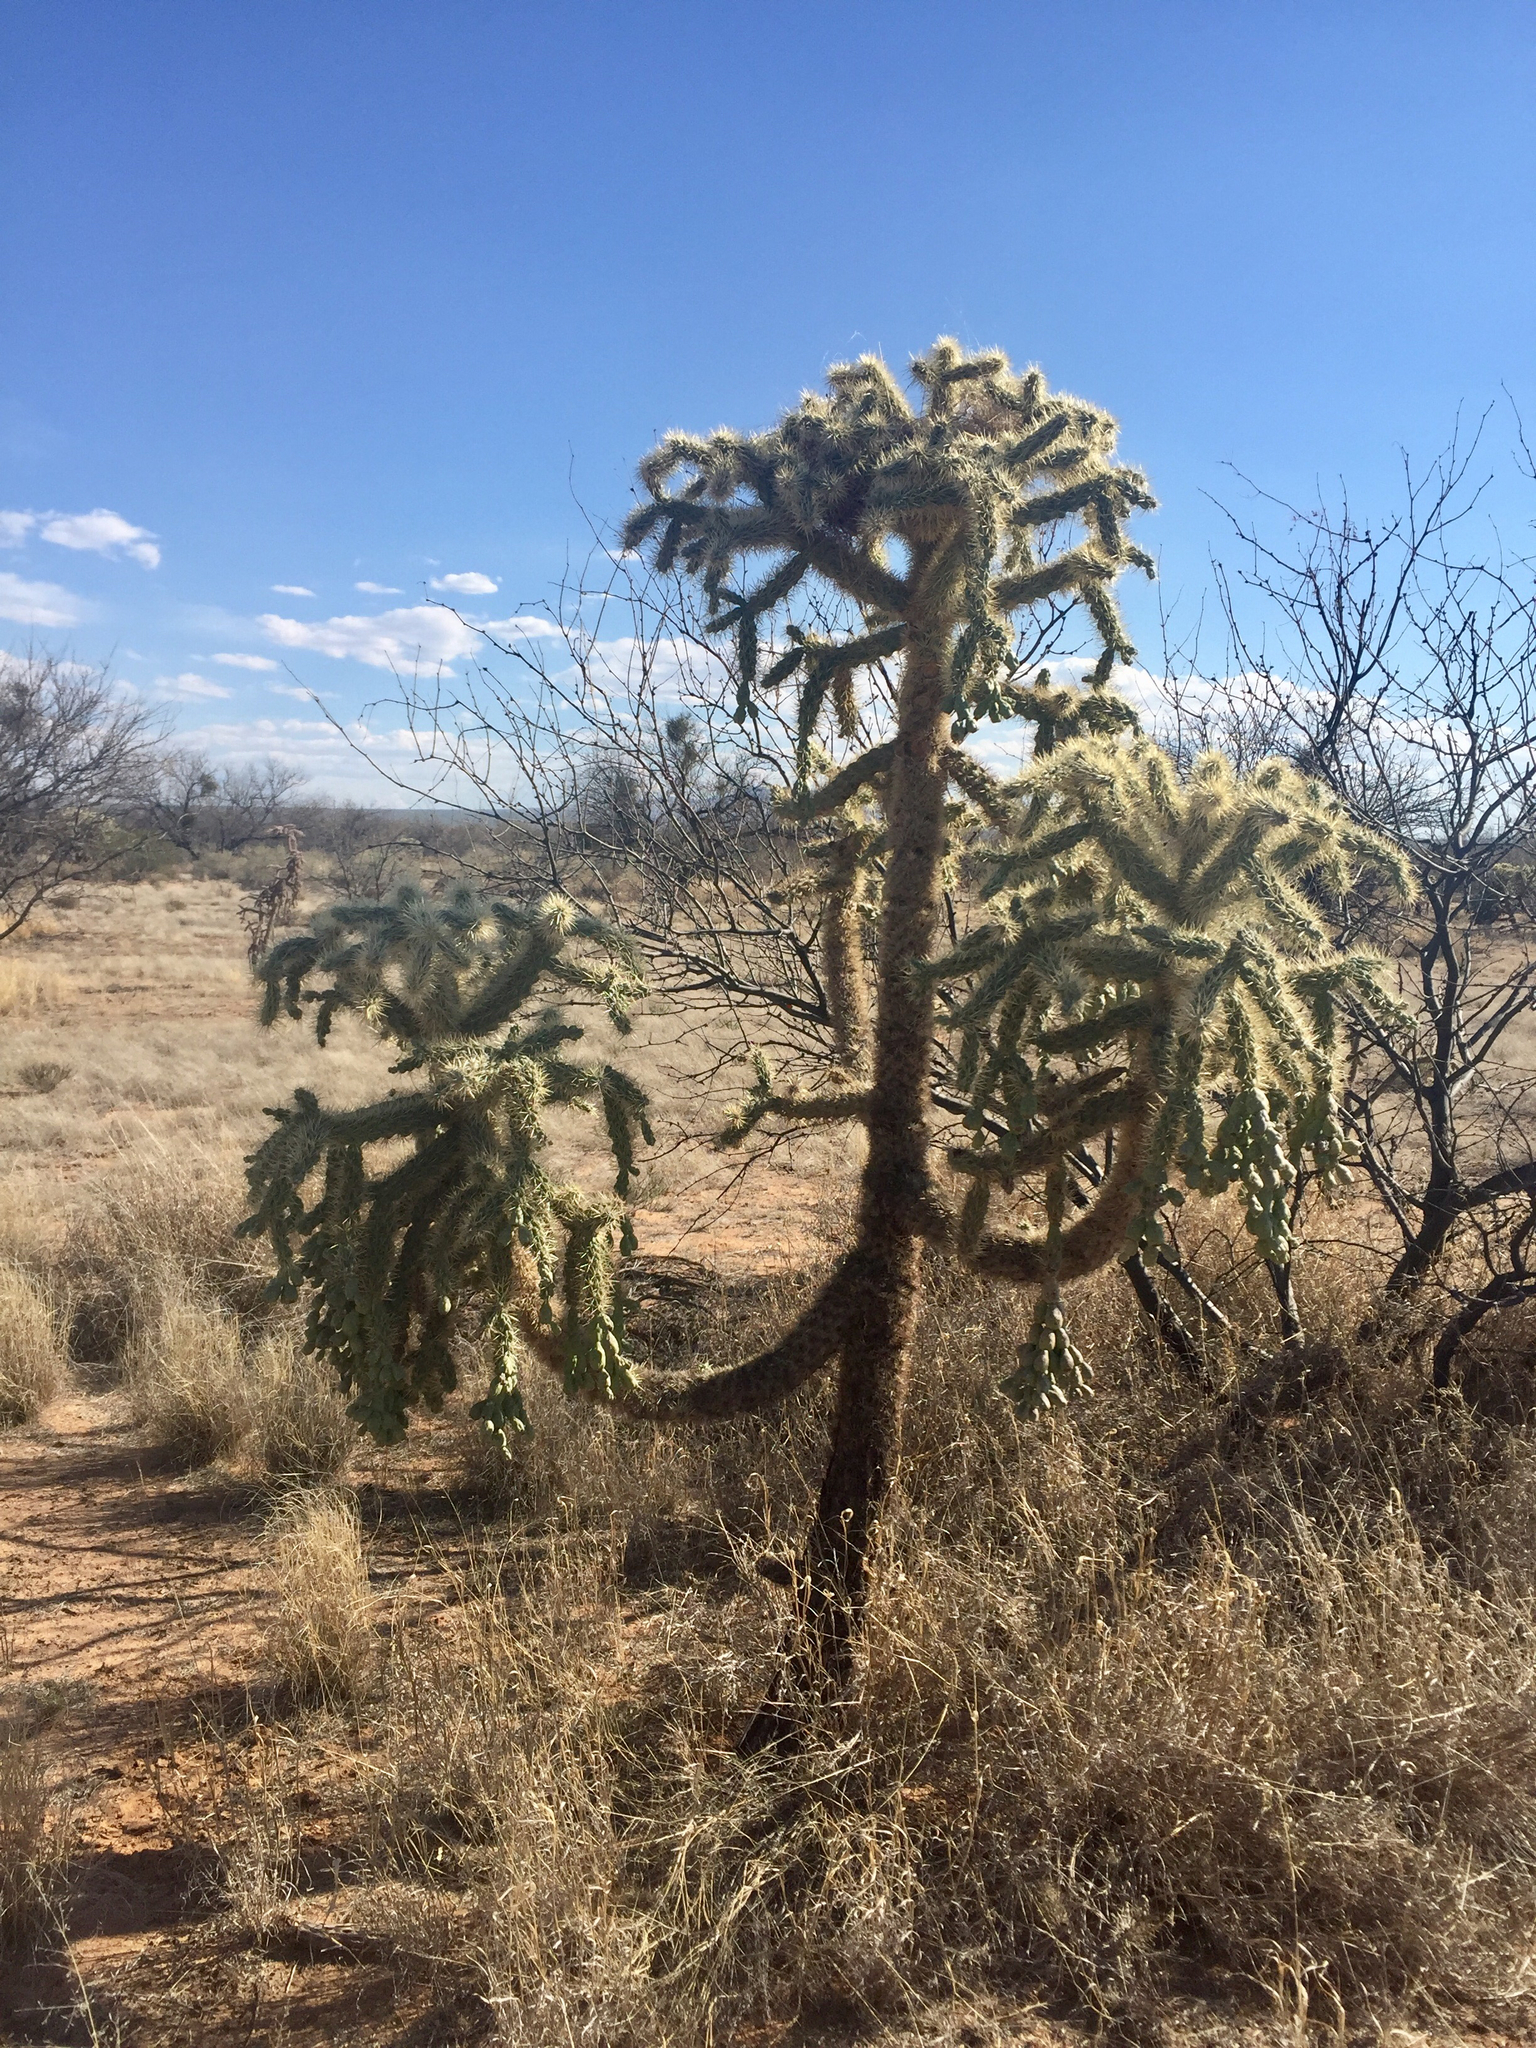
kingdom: Plantae
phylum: Tracheophyta
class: Magnoliopsida
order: Caryophyllales
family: Cactaceae
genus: Cylindropuntia
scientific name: Cylindropuntia fulgida
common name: Jumping cholla
